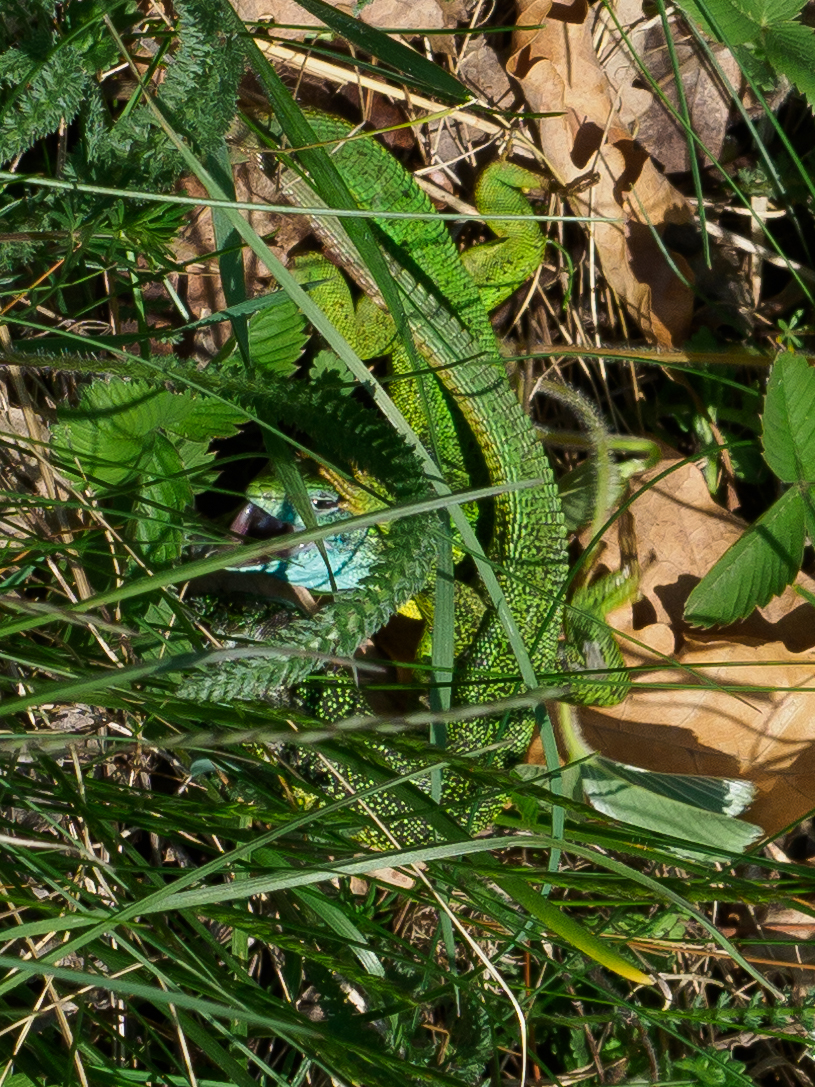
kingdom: Animalia
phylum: Chordata
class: Squamata
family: Lacertidae
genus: Lacerta
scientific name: Lacerta viridis
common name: European green lizard
